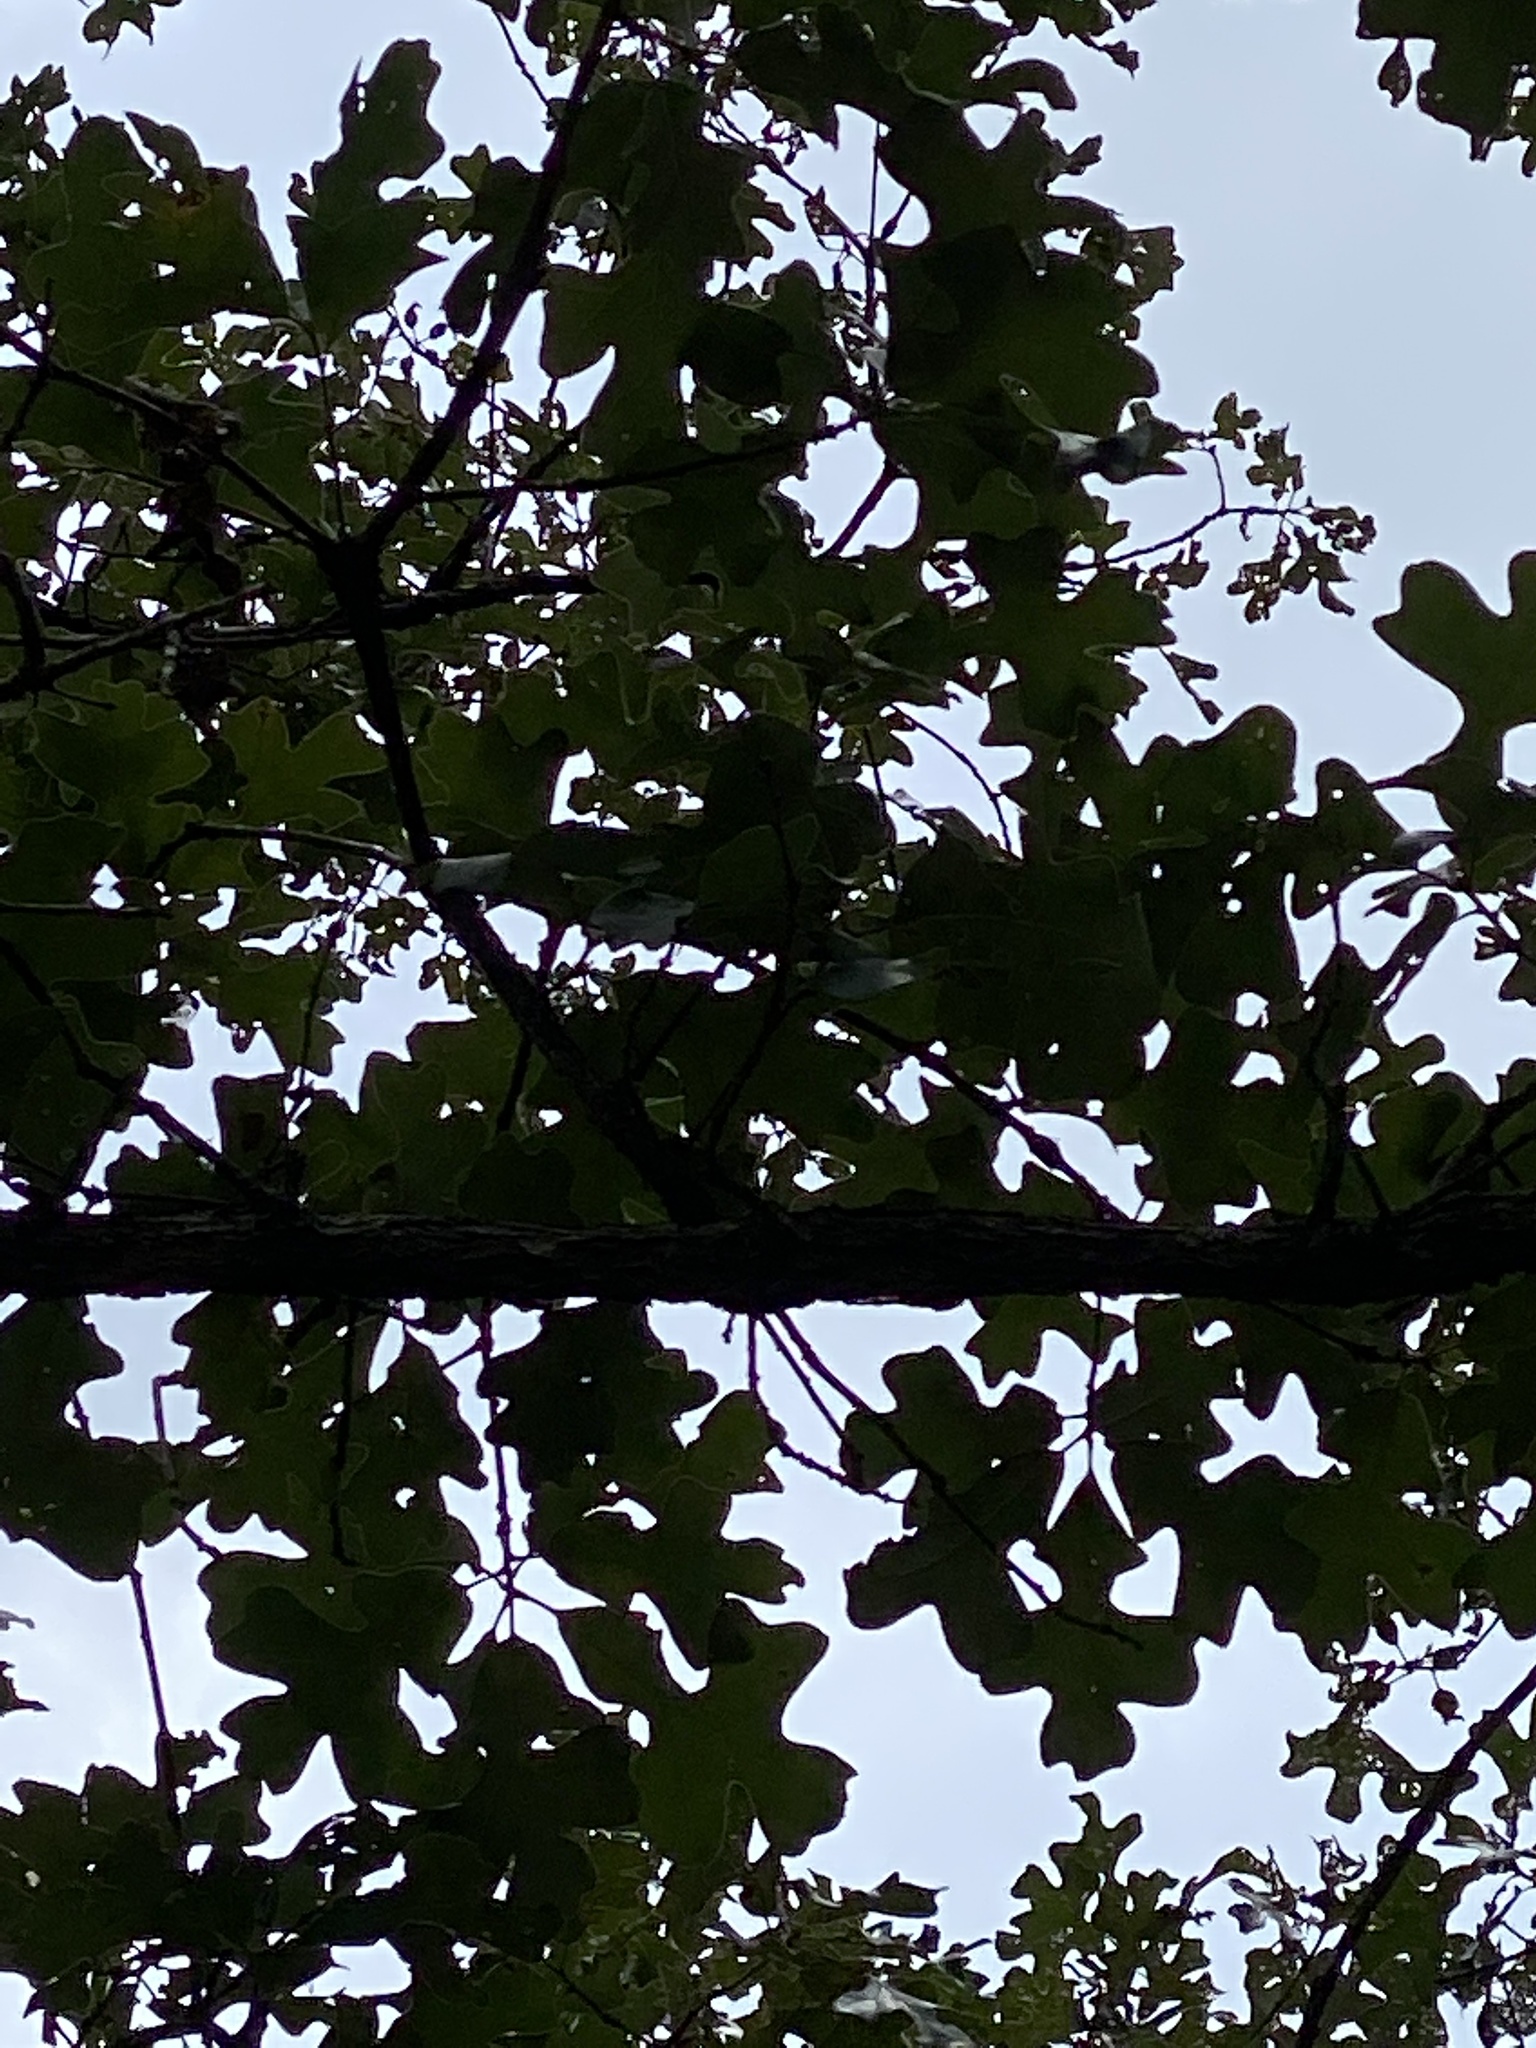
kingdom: Plantae
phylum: Tracheophyta
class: Magnoliopsida
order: Fagales
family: Fagaceae
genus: Quercus
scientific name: Quercus stellata
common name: Post oak
